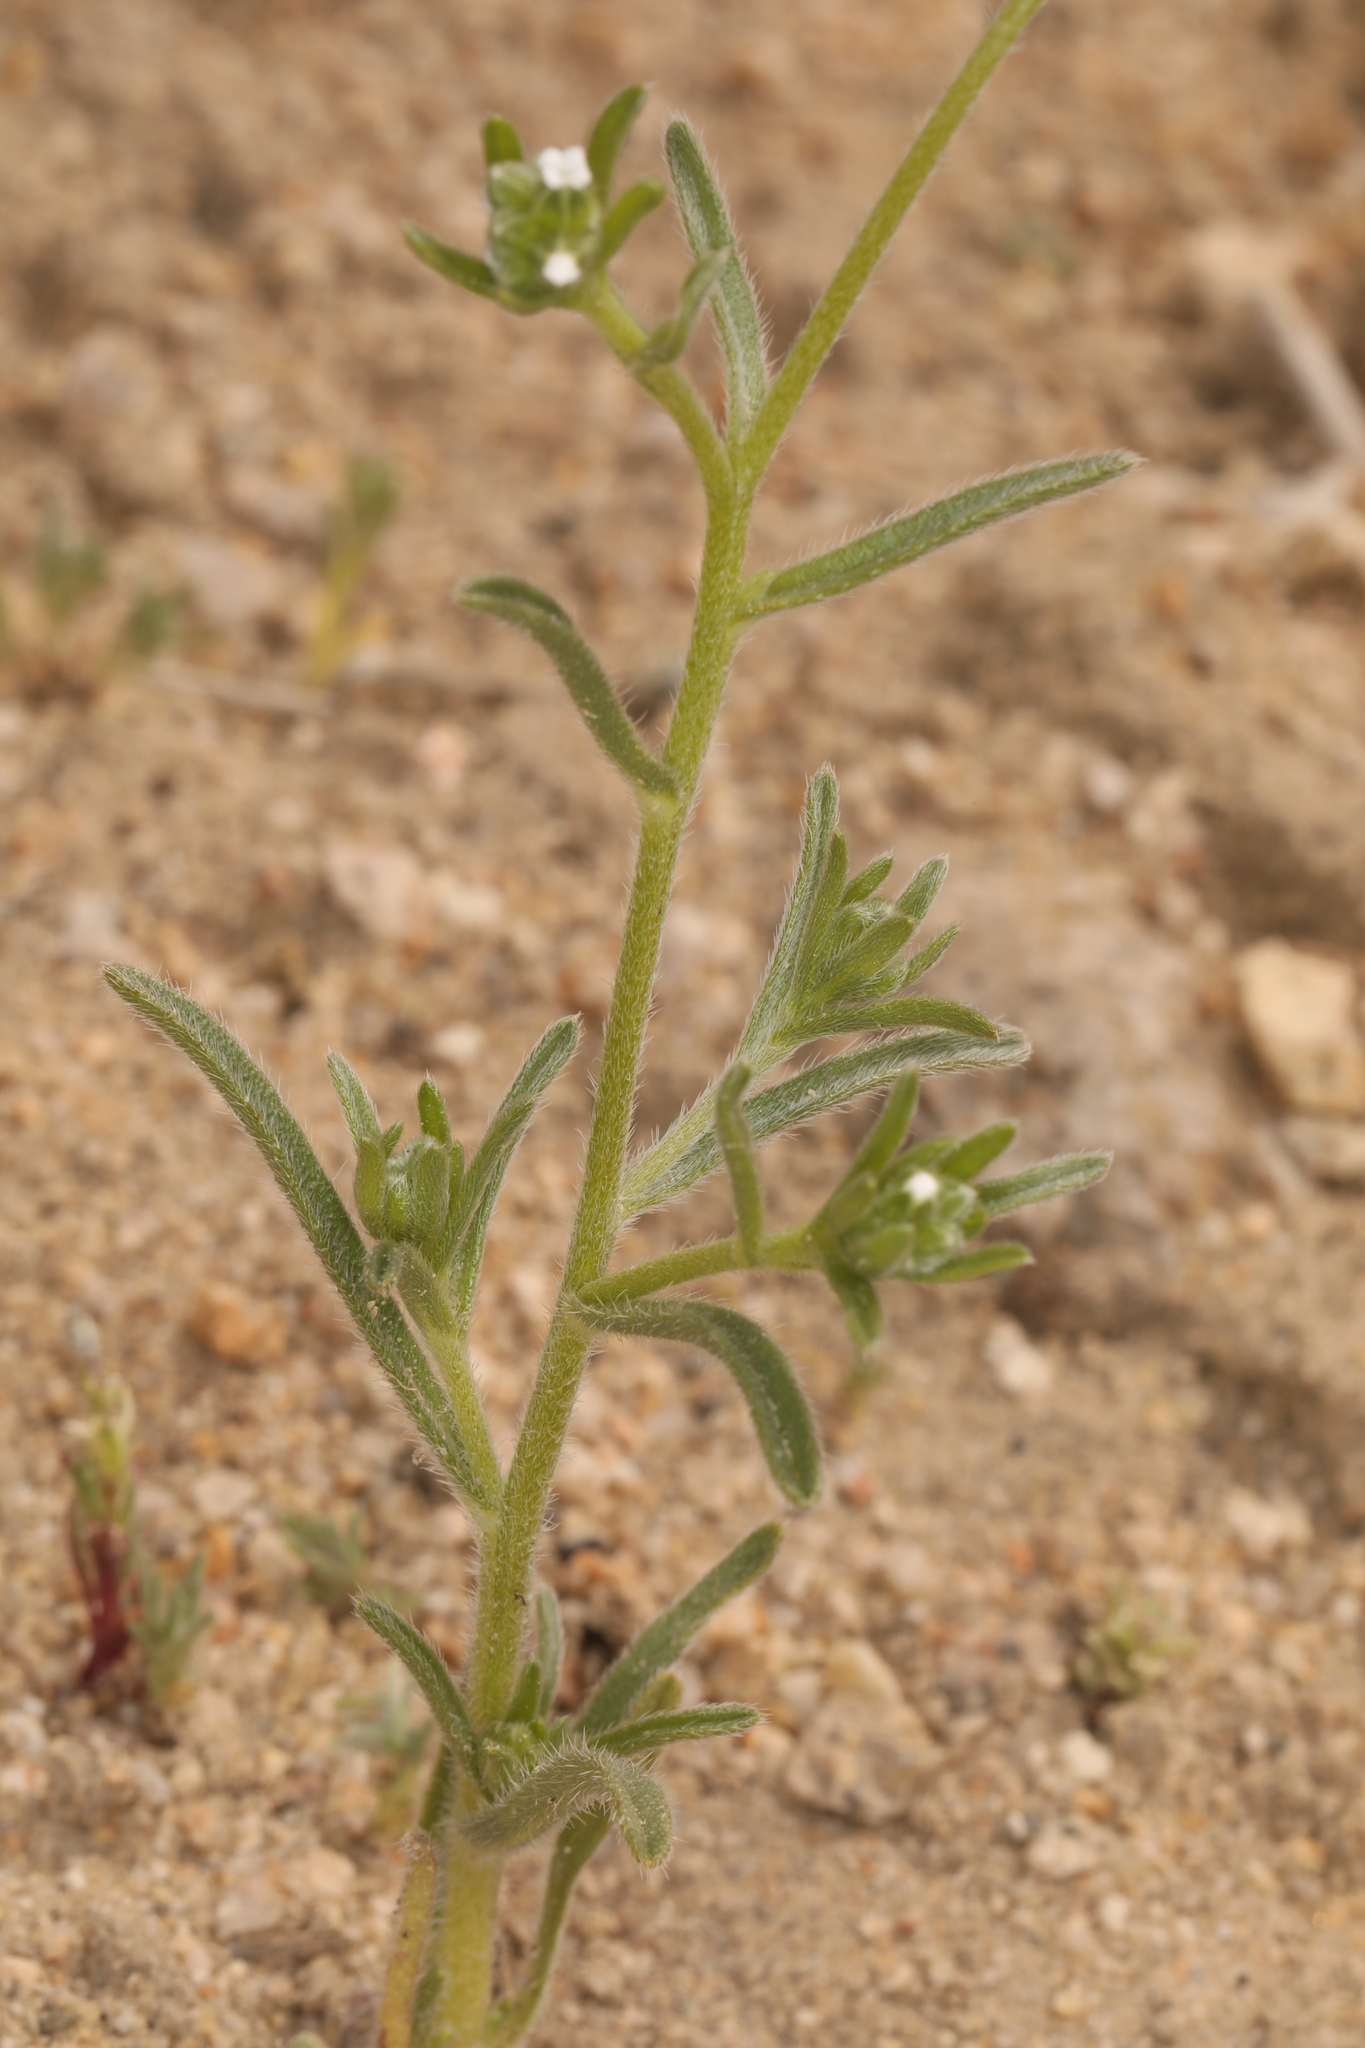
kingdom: Plantae
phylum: Tracheophyta
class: Magnoliopsida
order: Boraginales
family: Boraginaceae
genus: Cryptantha
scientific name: Cryptantha pterocarya
